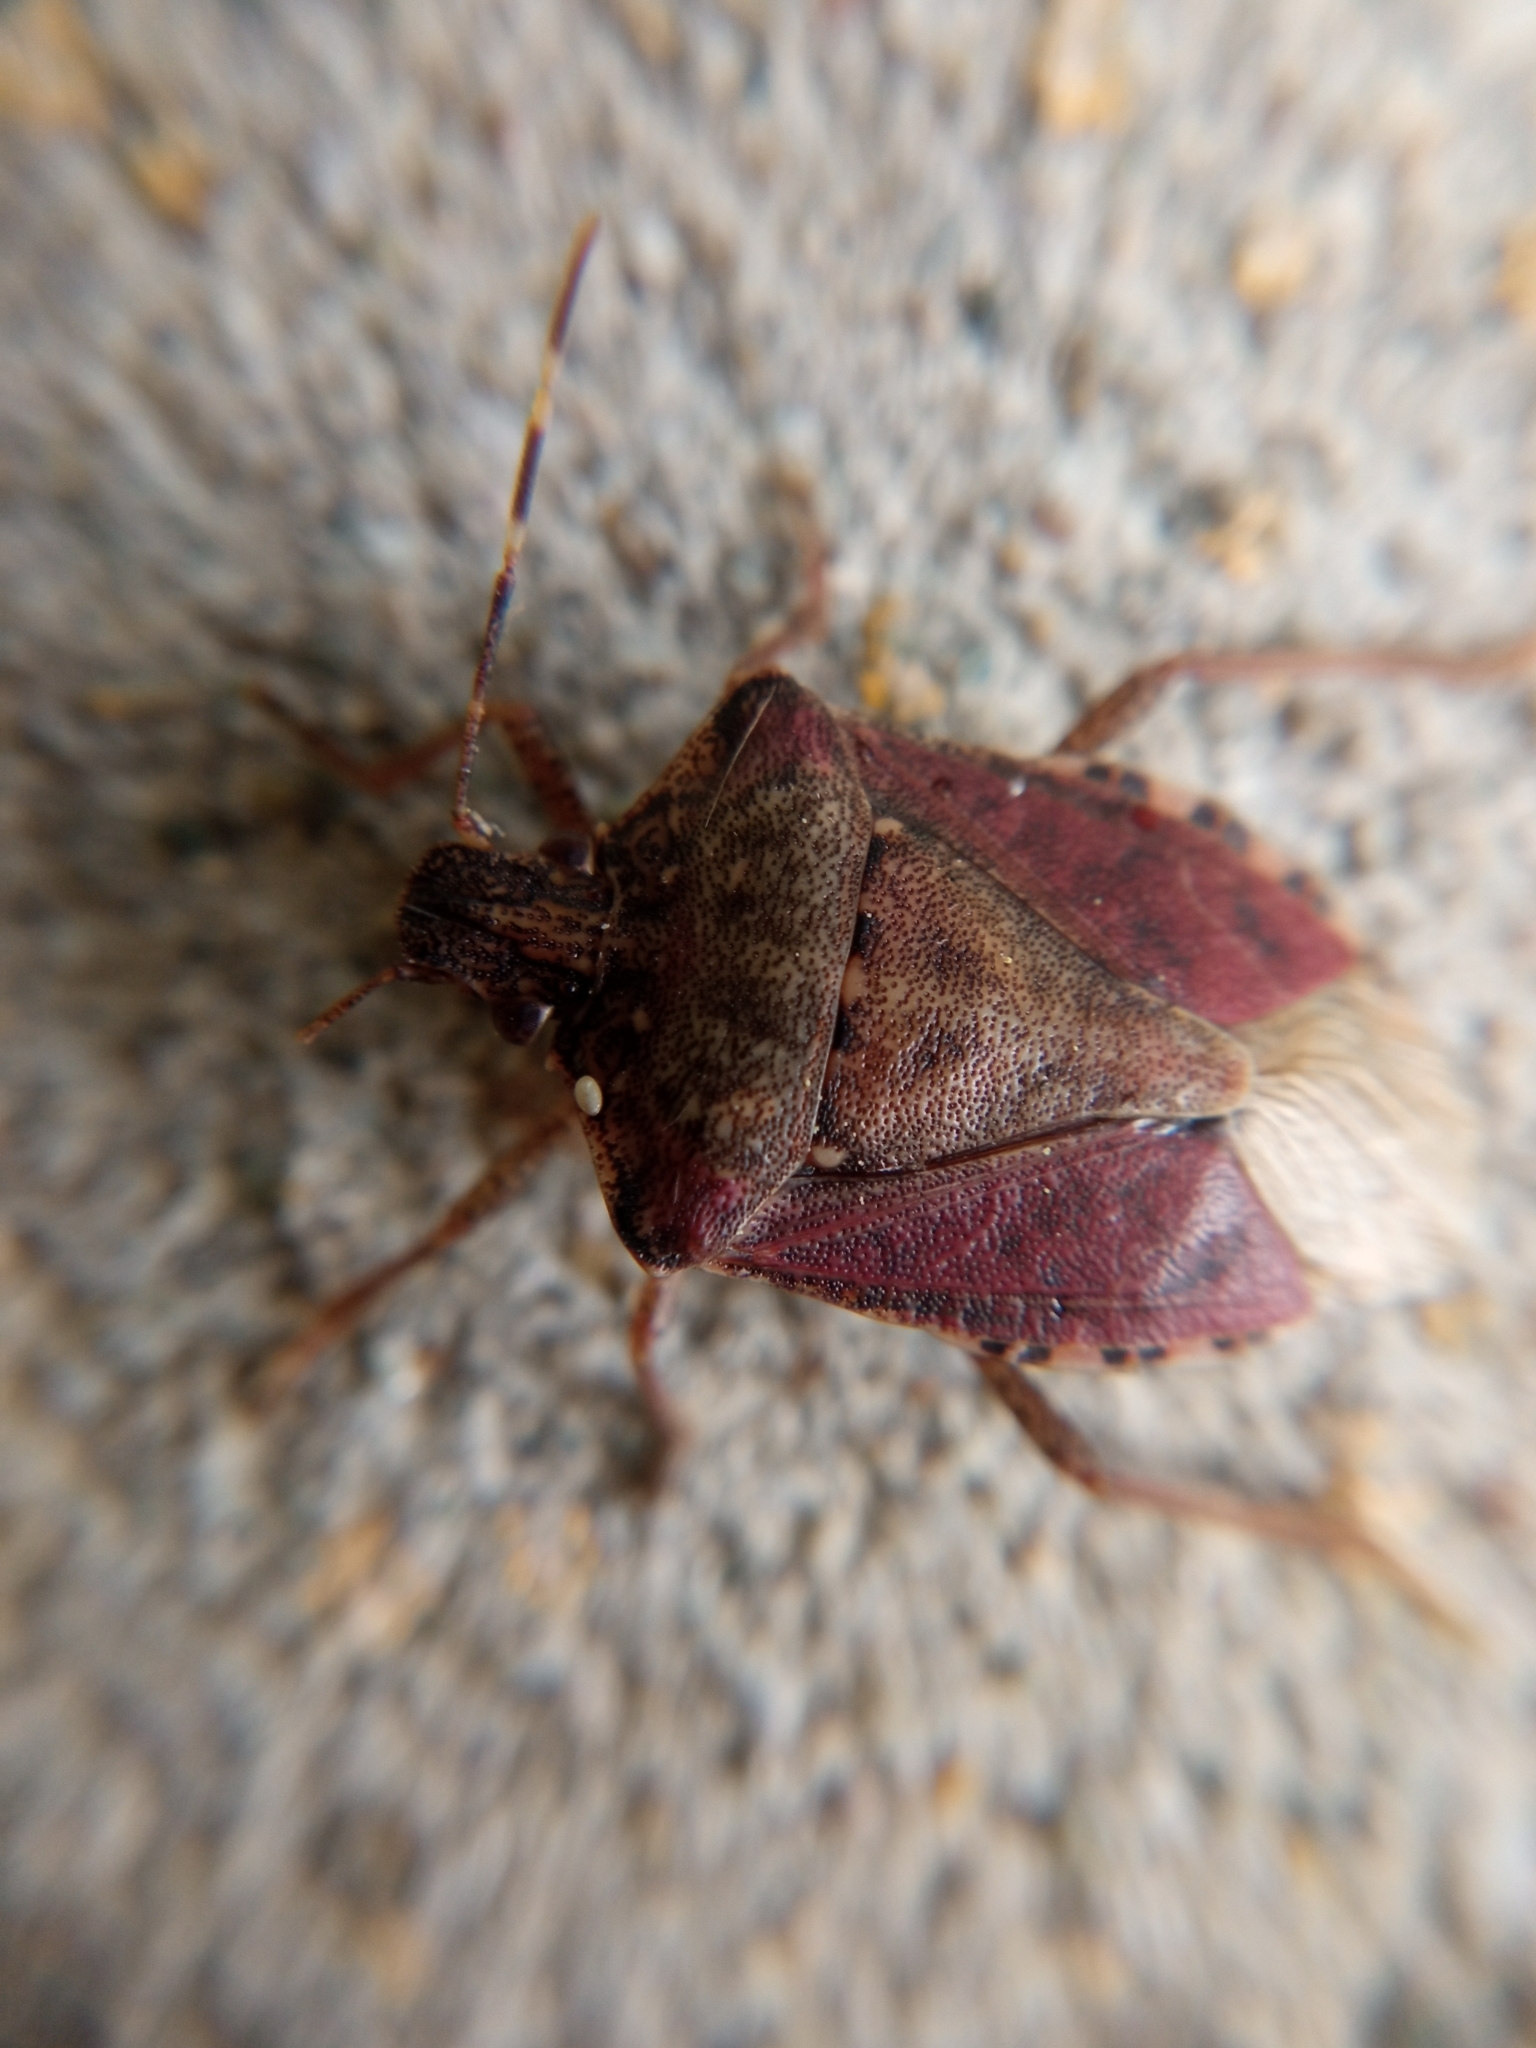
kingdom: Animalia
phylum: Arthropoda
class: Insecta
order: Hemiptera
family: Pentatomidae
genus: Halyomorpha
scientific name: Halyomorpha halys
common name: Brown marmorated stink bug
